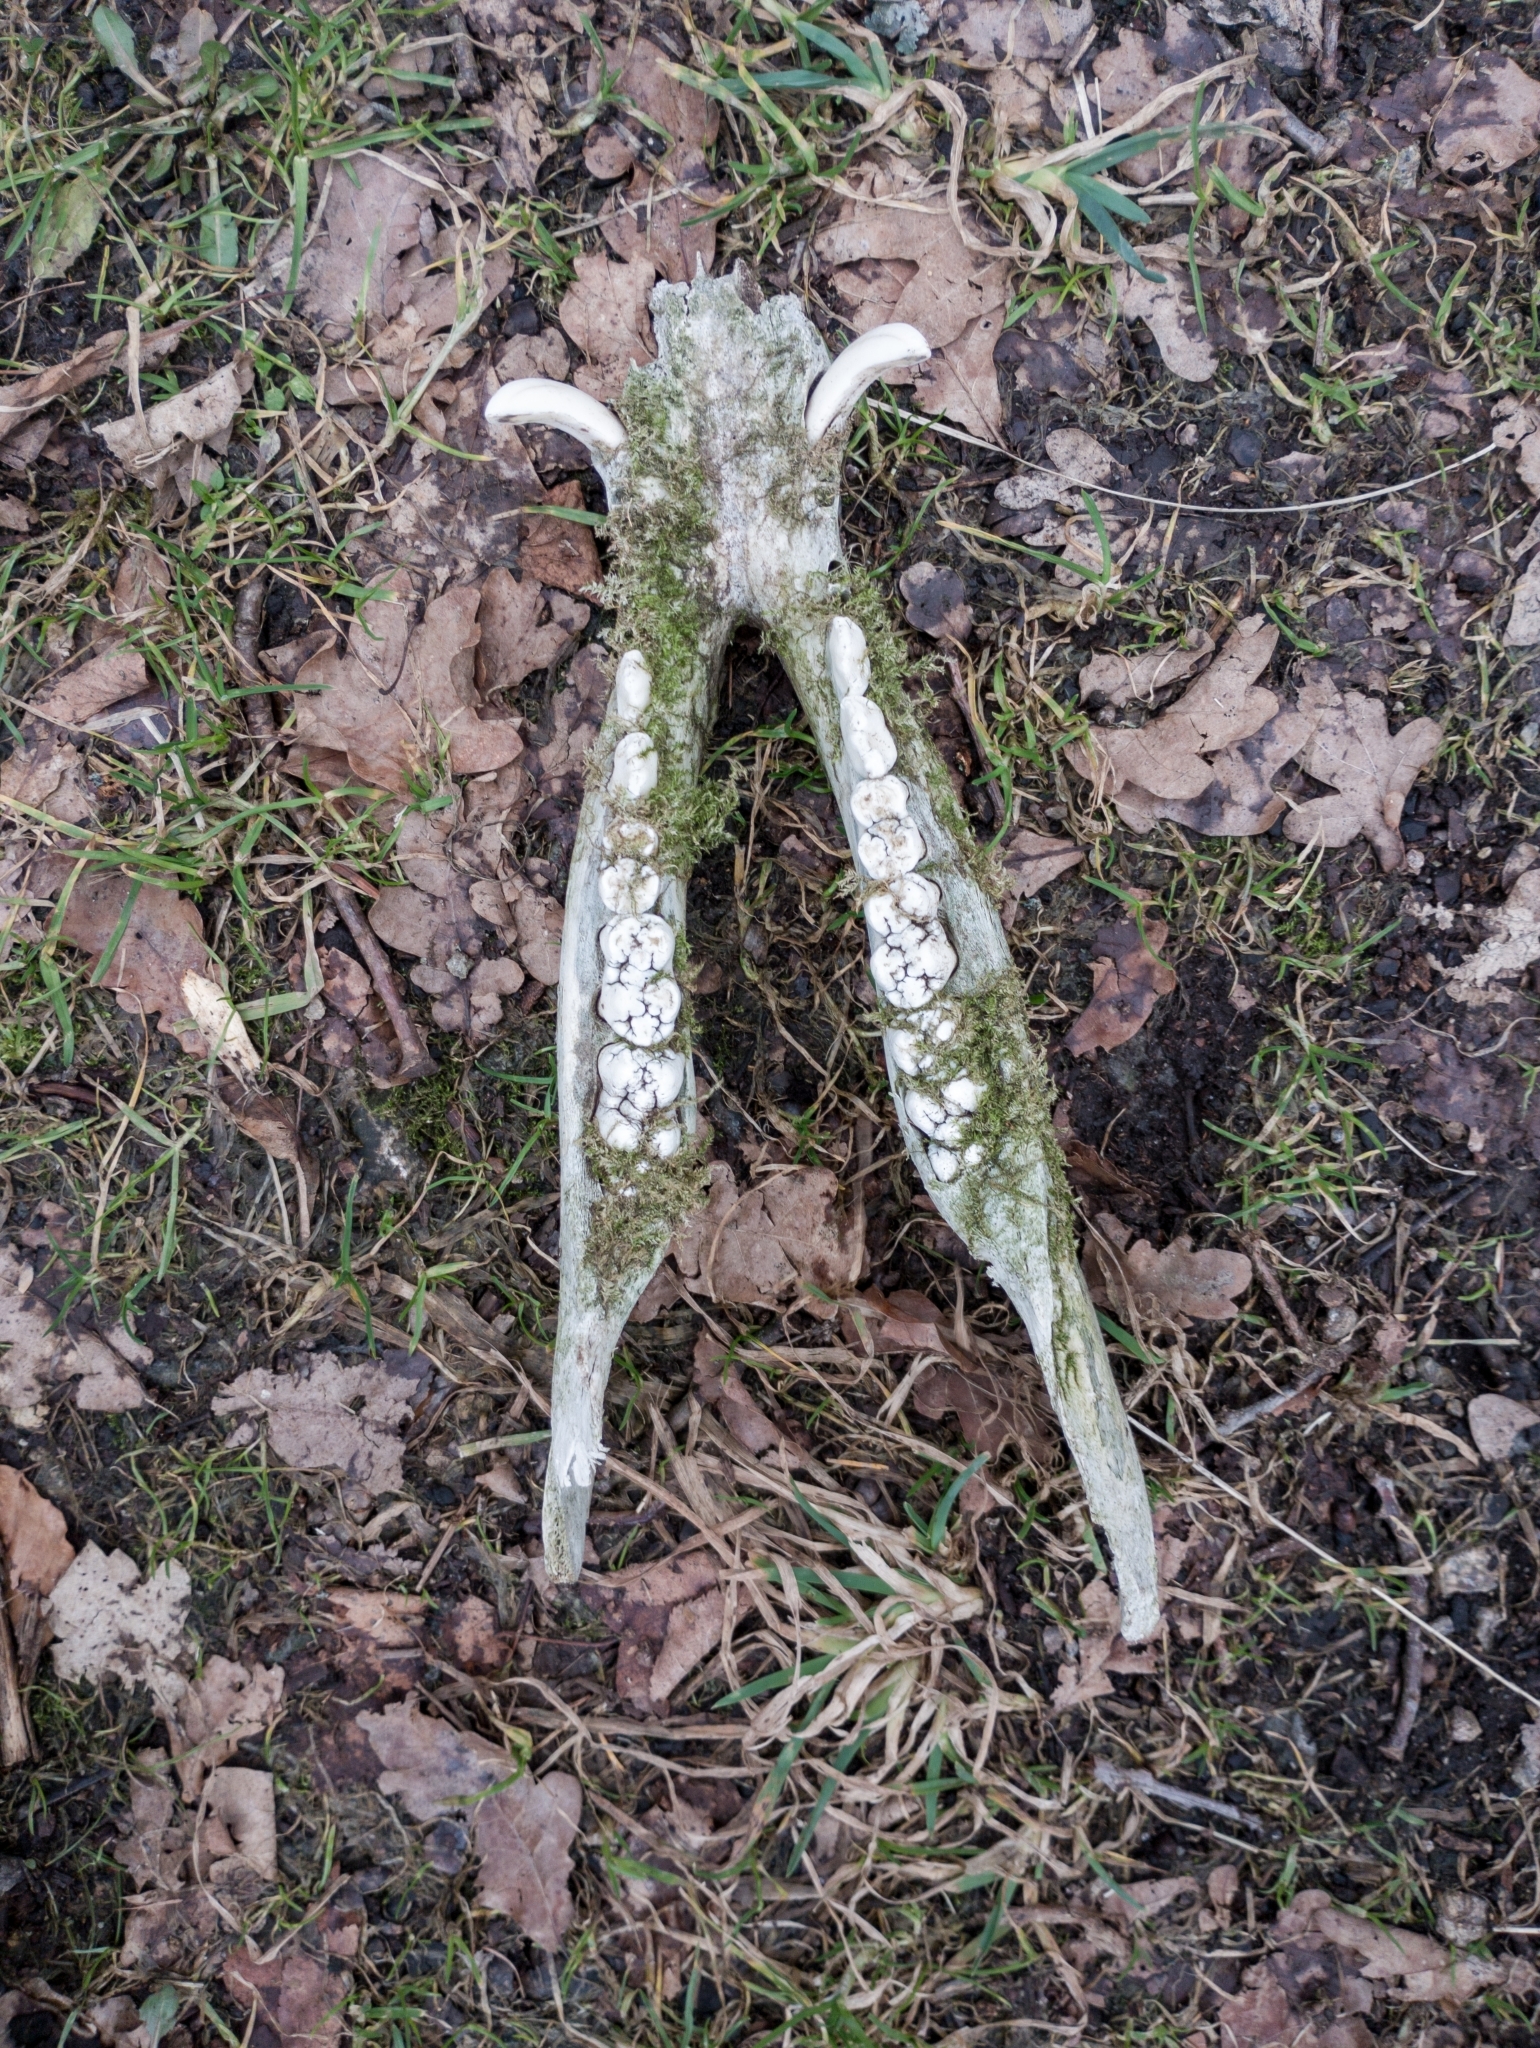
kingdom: Animalia
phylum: Chordata
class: Mammalia
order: Artiodactyla
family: Suidae
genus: Sus
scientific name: Sus scrofa
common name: Wild boar
